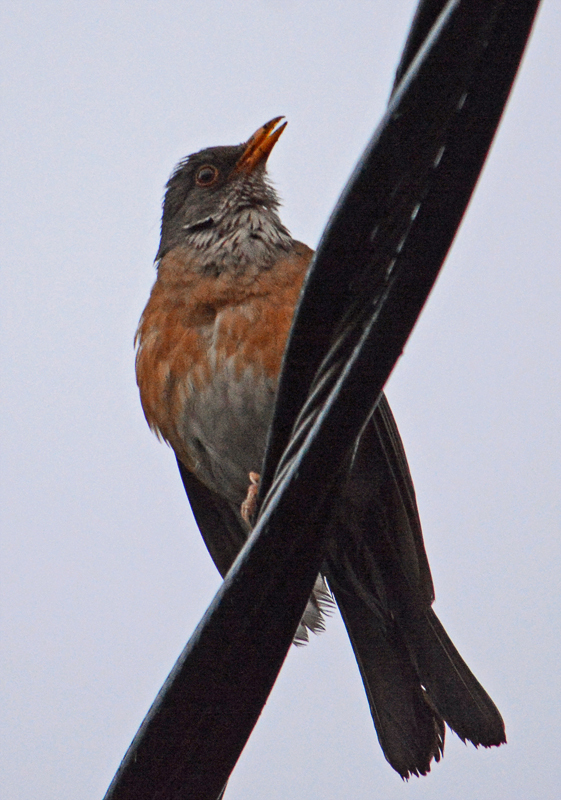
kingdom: Animalia
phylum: Chordata
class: Aves
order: Passeriformes
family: Turdidae
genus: Turdus
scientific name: Turdus rufopalliatus
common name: Rufous-backed robin
